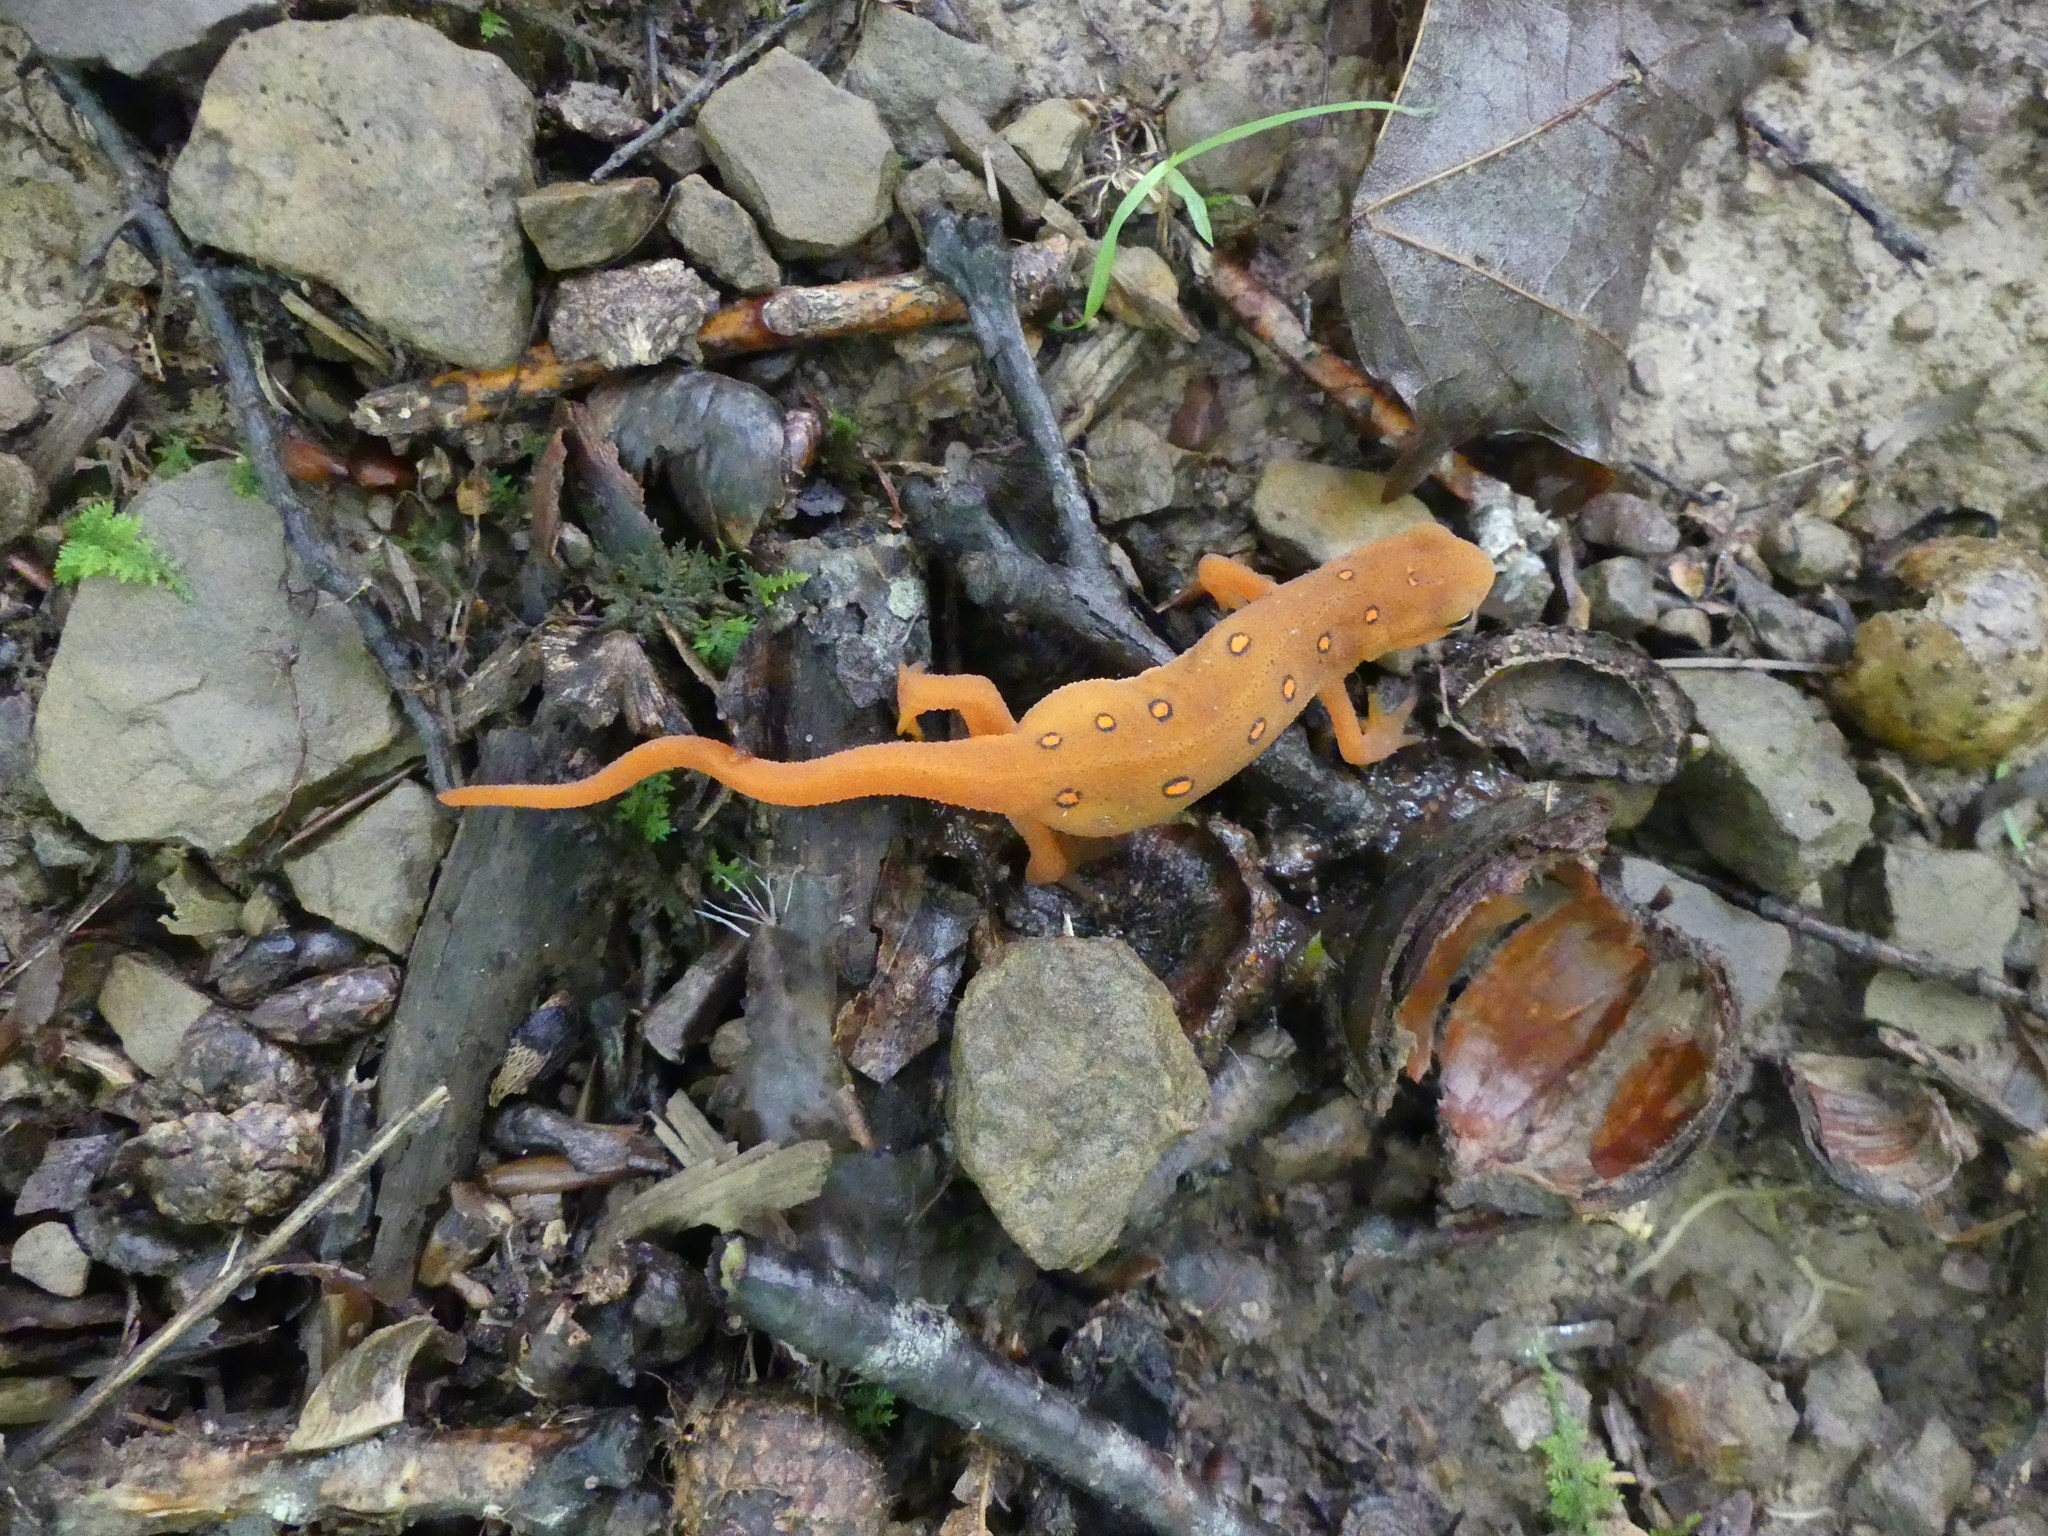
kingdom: Animalia
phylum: Chordata
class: Amphibia
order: Caudata
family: Salamandridae
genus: Notophthalmus
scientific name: Notophthalmus viridescens
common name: Eastern newt
